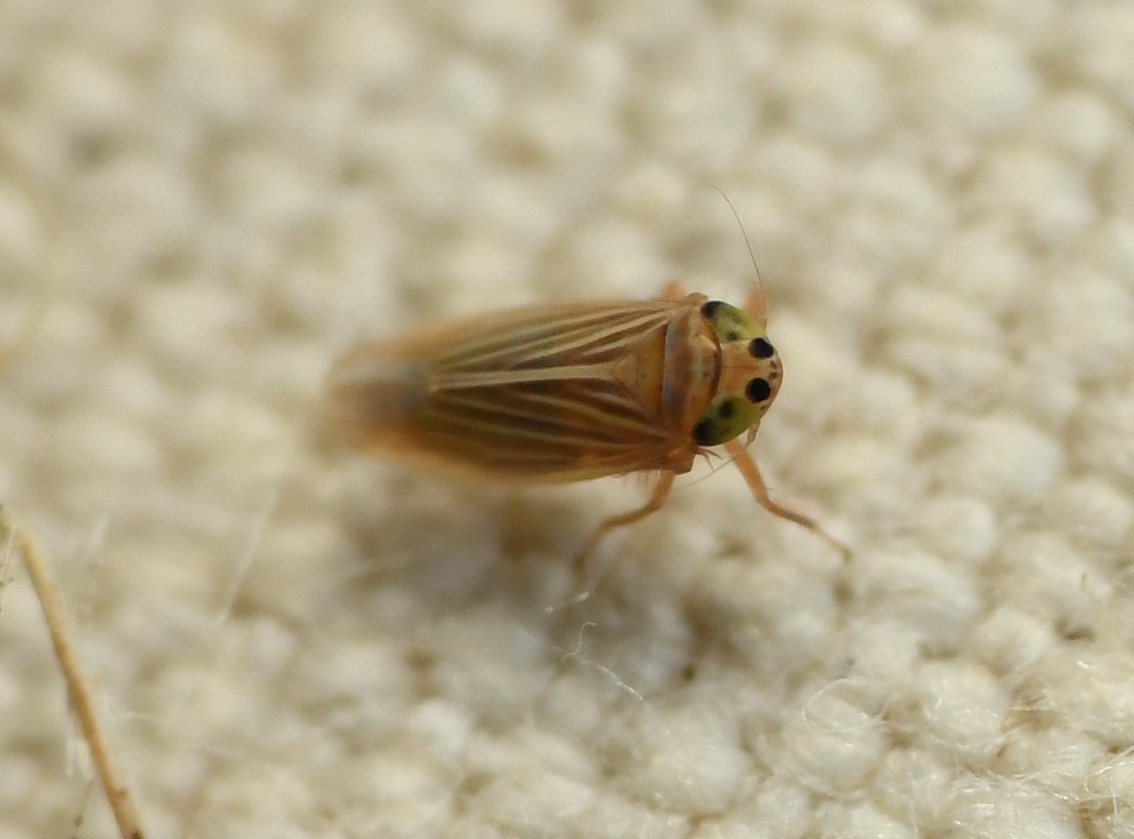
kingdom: Animalia
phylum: Arthropoda
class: Insecta
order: Hemiptera
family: Cicadellidae
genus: Graminella
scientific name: Graminella villicus
